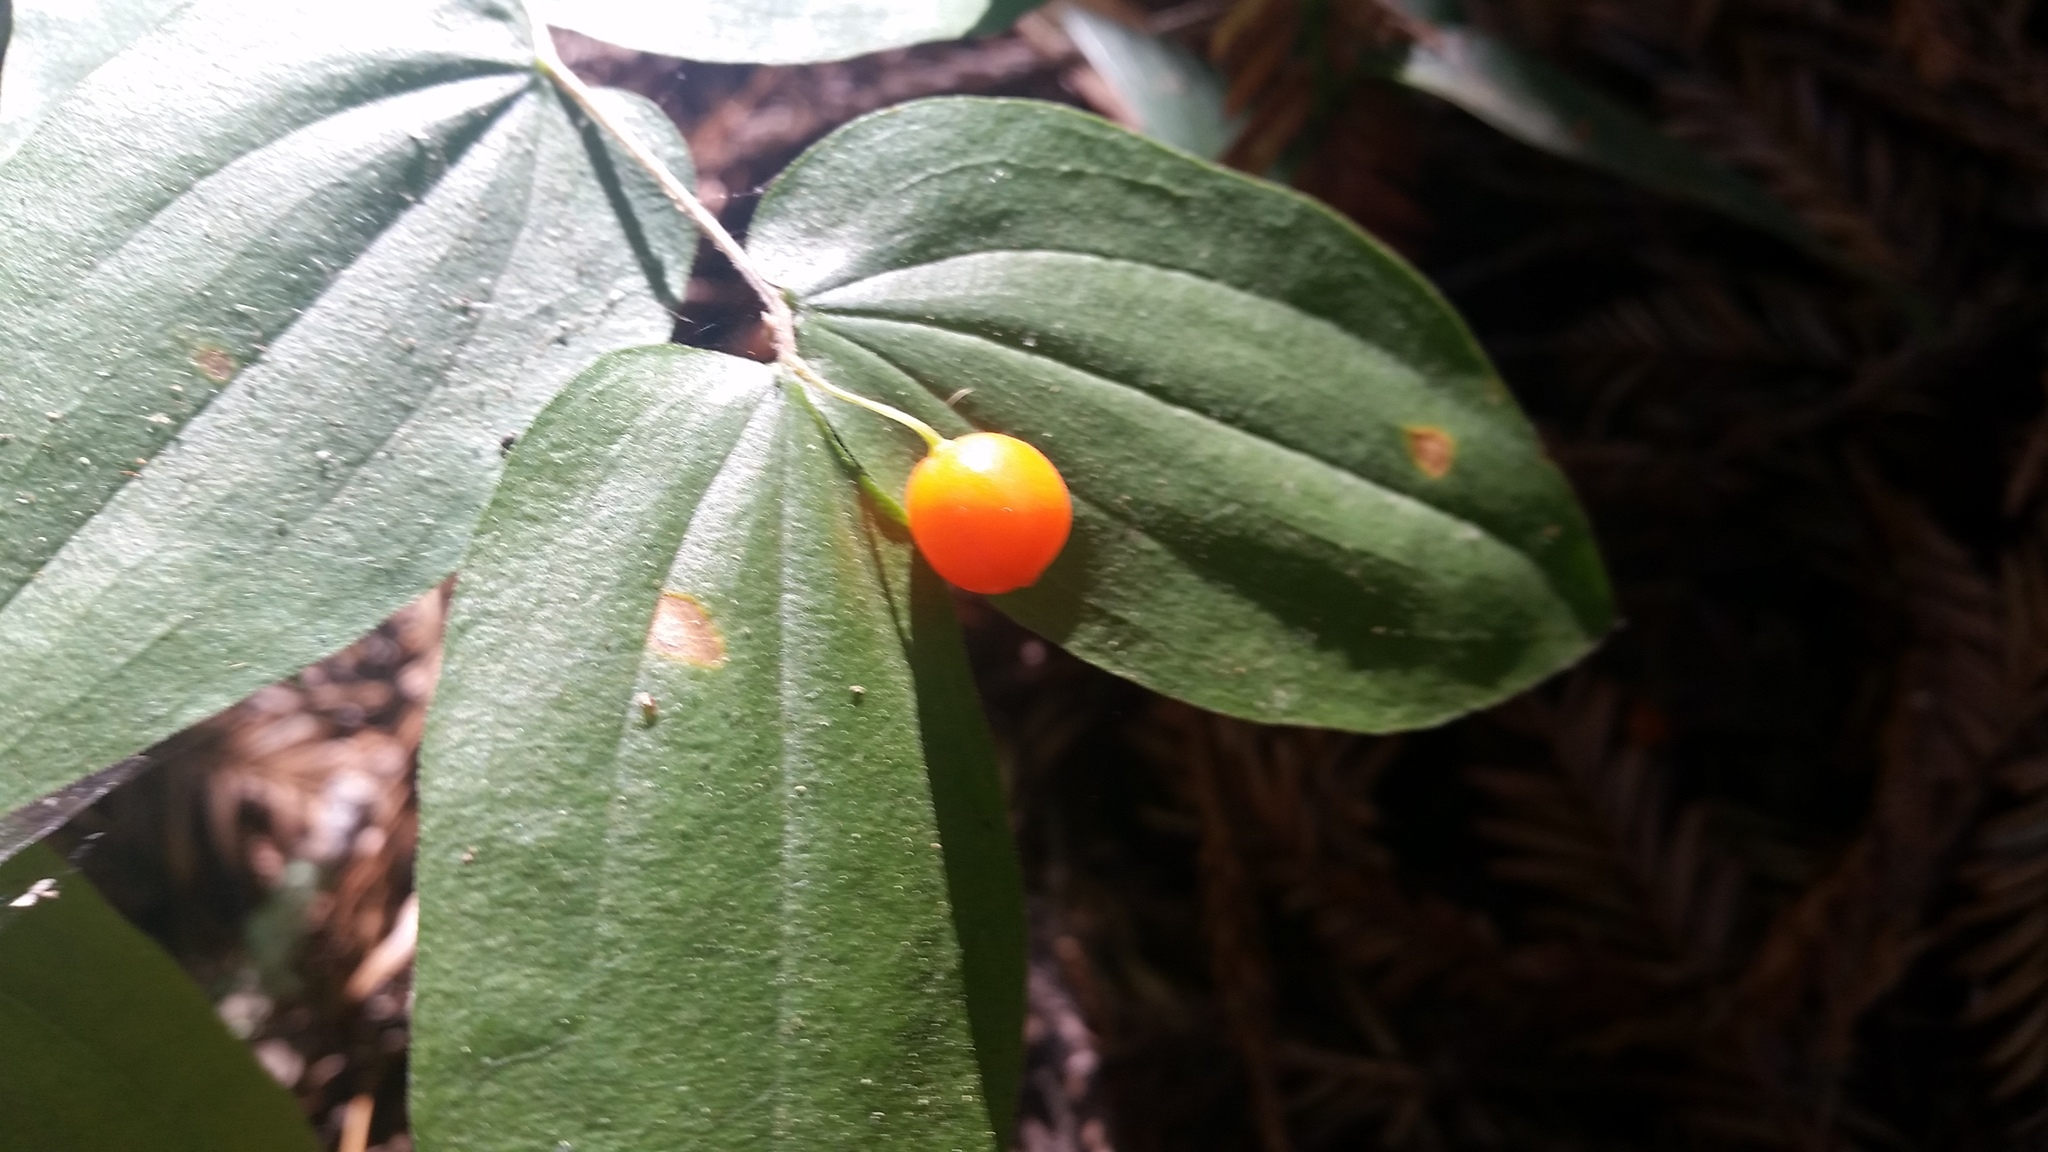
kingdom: Plantae
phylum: Tracheophyta
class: Liliopsida
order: Liliales
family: Liliaceae
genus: Prosartes
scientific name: Prosartes hookeri
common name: Fairy-bells
